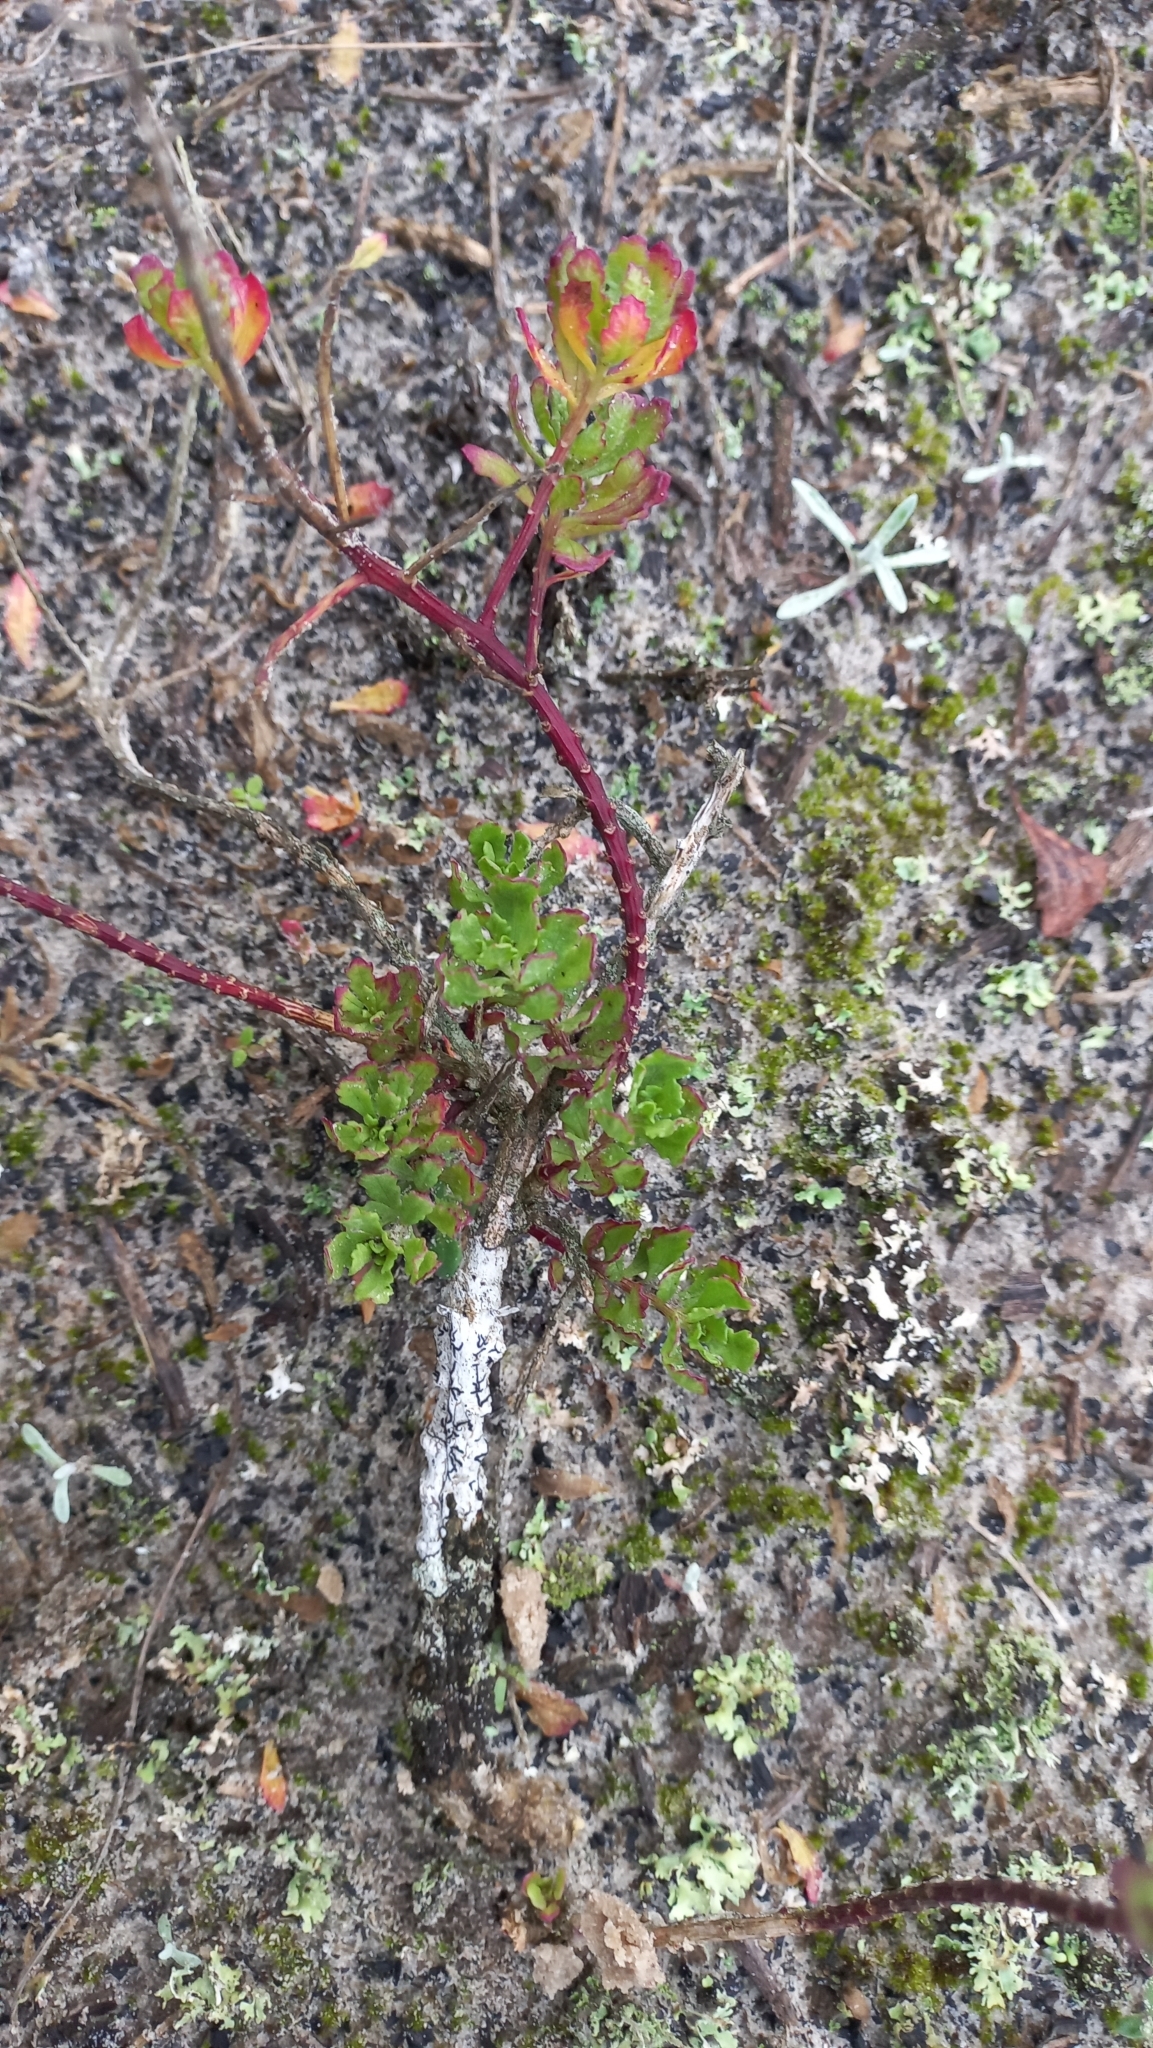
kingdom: Plantae
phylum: Tracheophyta
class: Magnoliopsida
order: Caryophyllales
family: Amaranthaceae
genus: Dysphania
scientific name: Dysphania retusa
